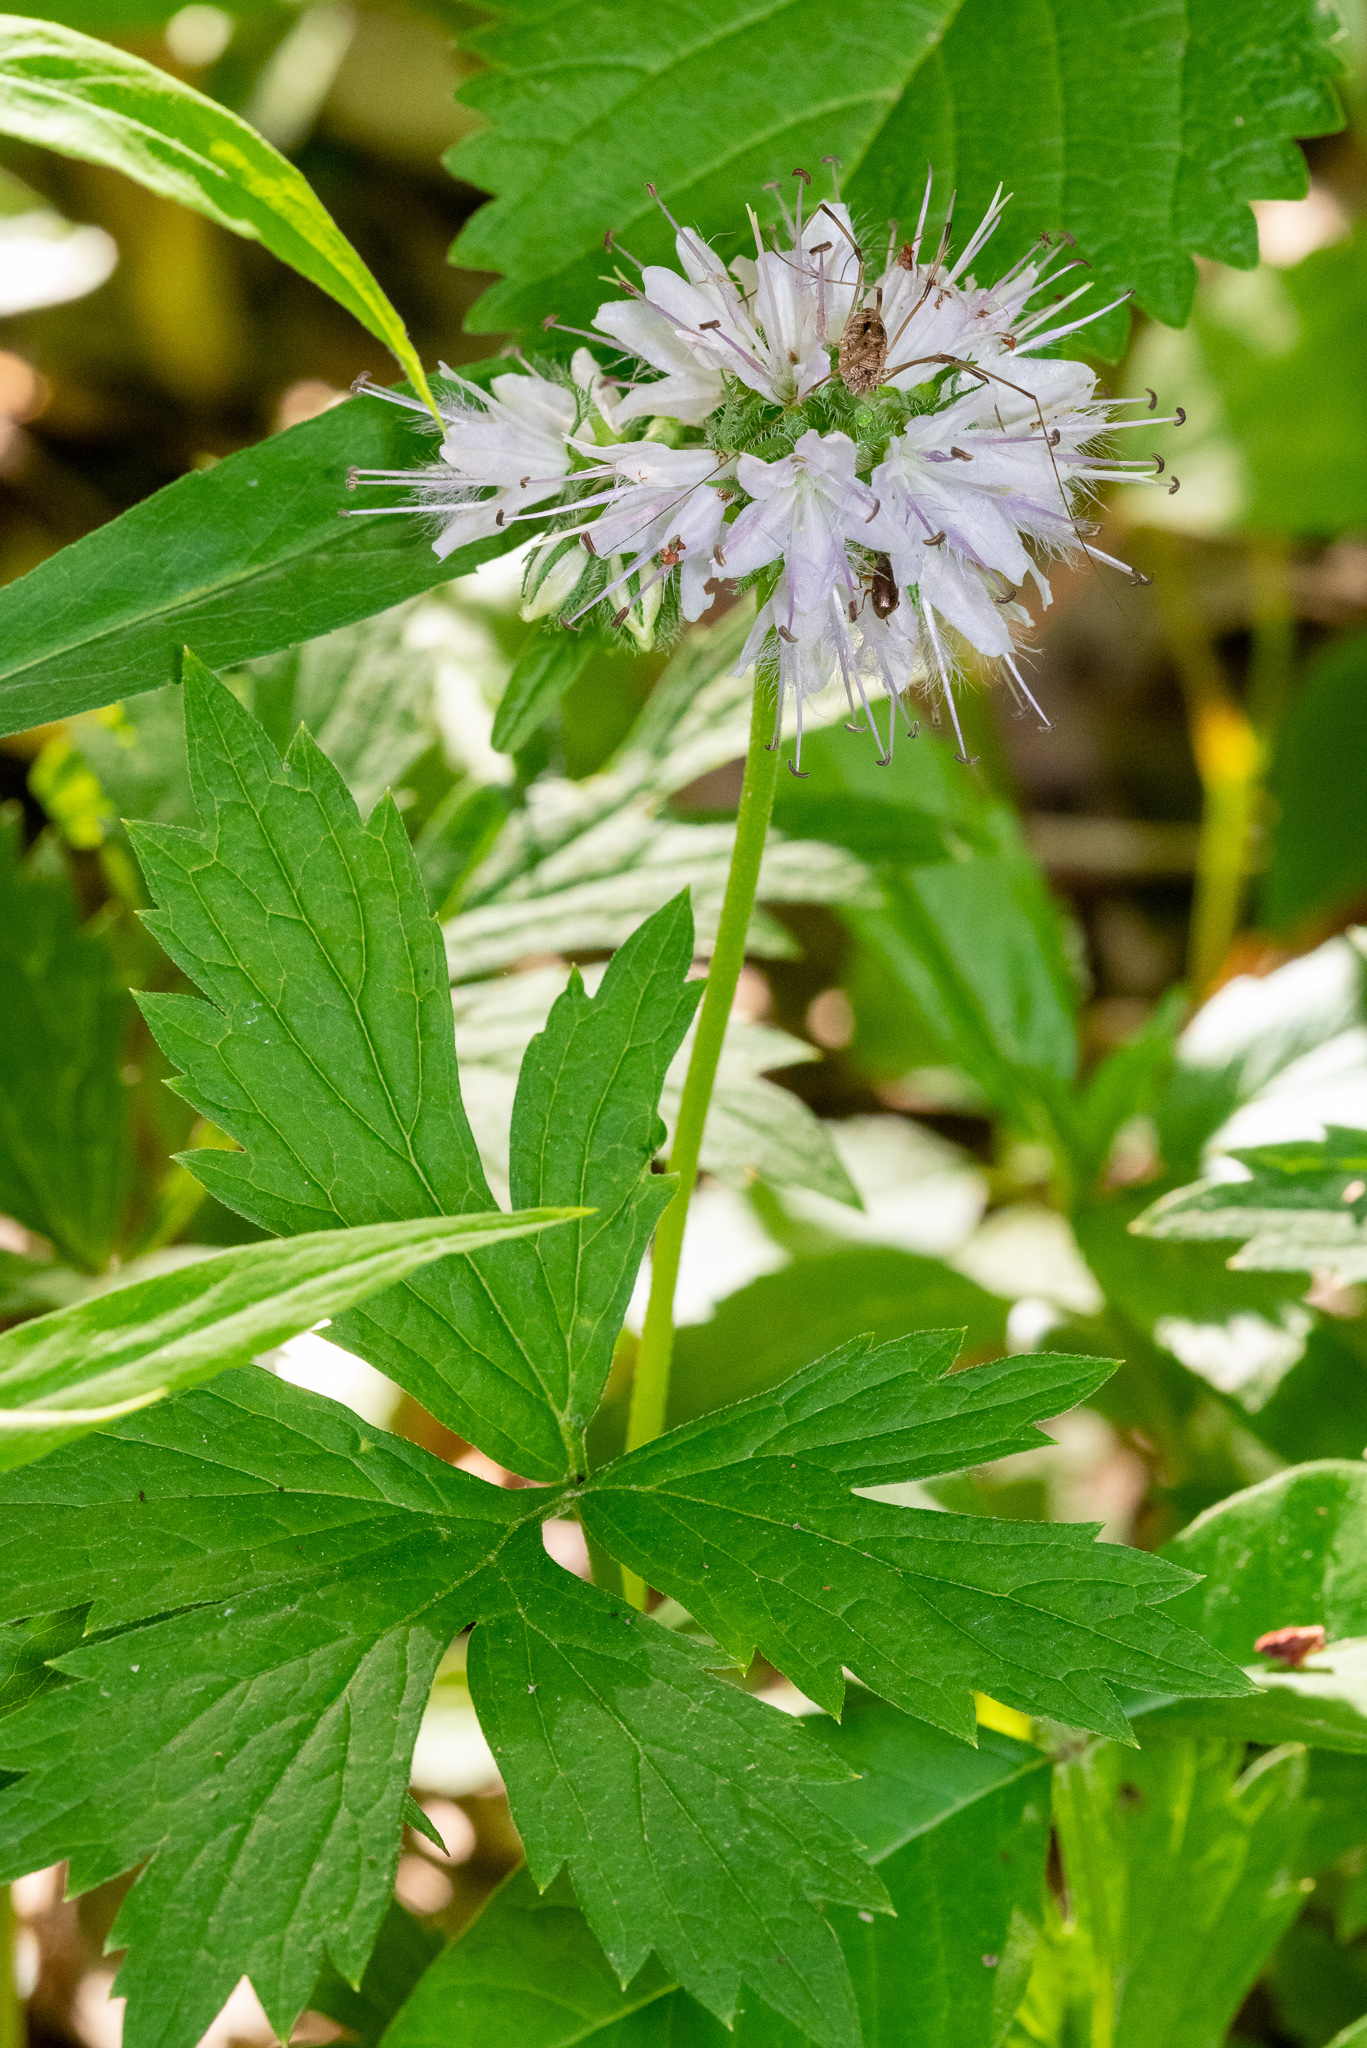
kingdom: Plantae
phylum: Tracheophyta
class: Magnoliopsida
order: Boraginales
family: Hydrophyllaceae
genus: Hydrophyllum
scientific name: Hydrophyllum virginianum
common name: Virginia waterleaf
